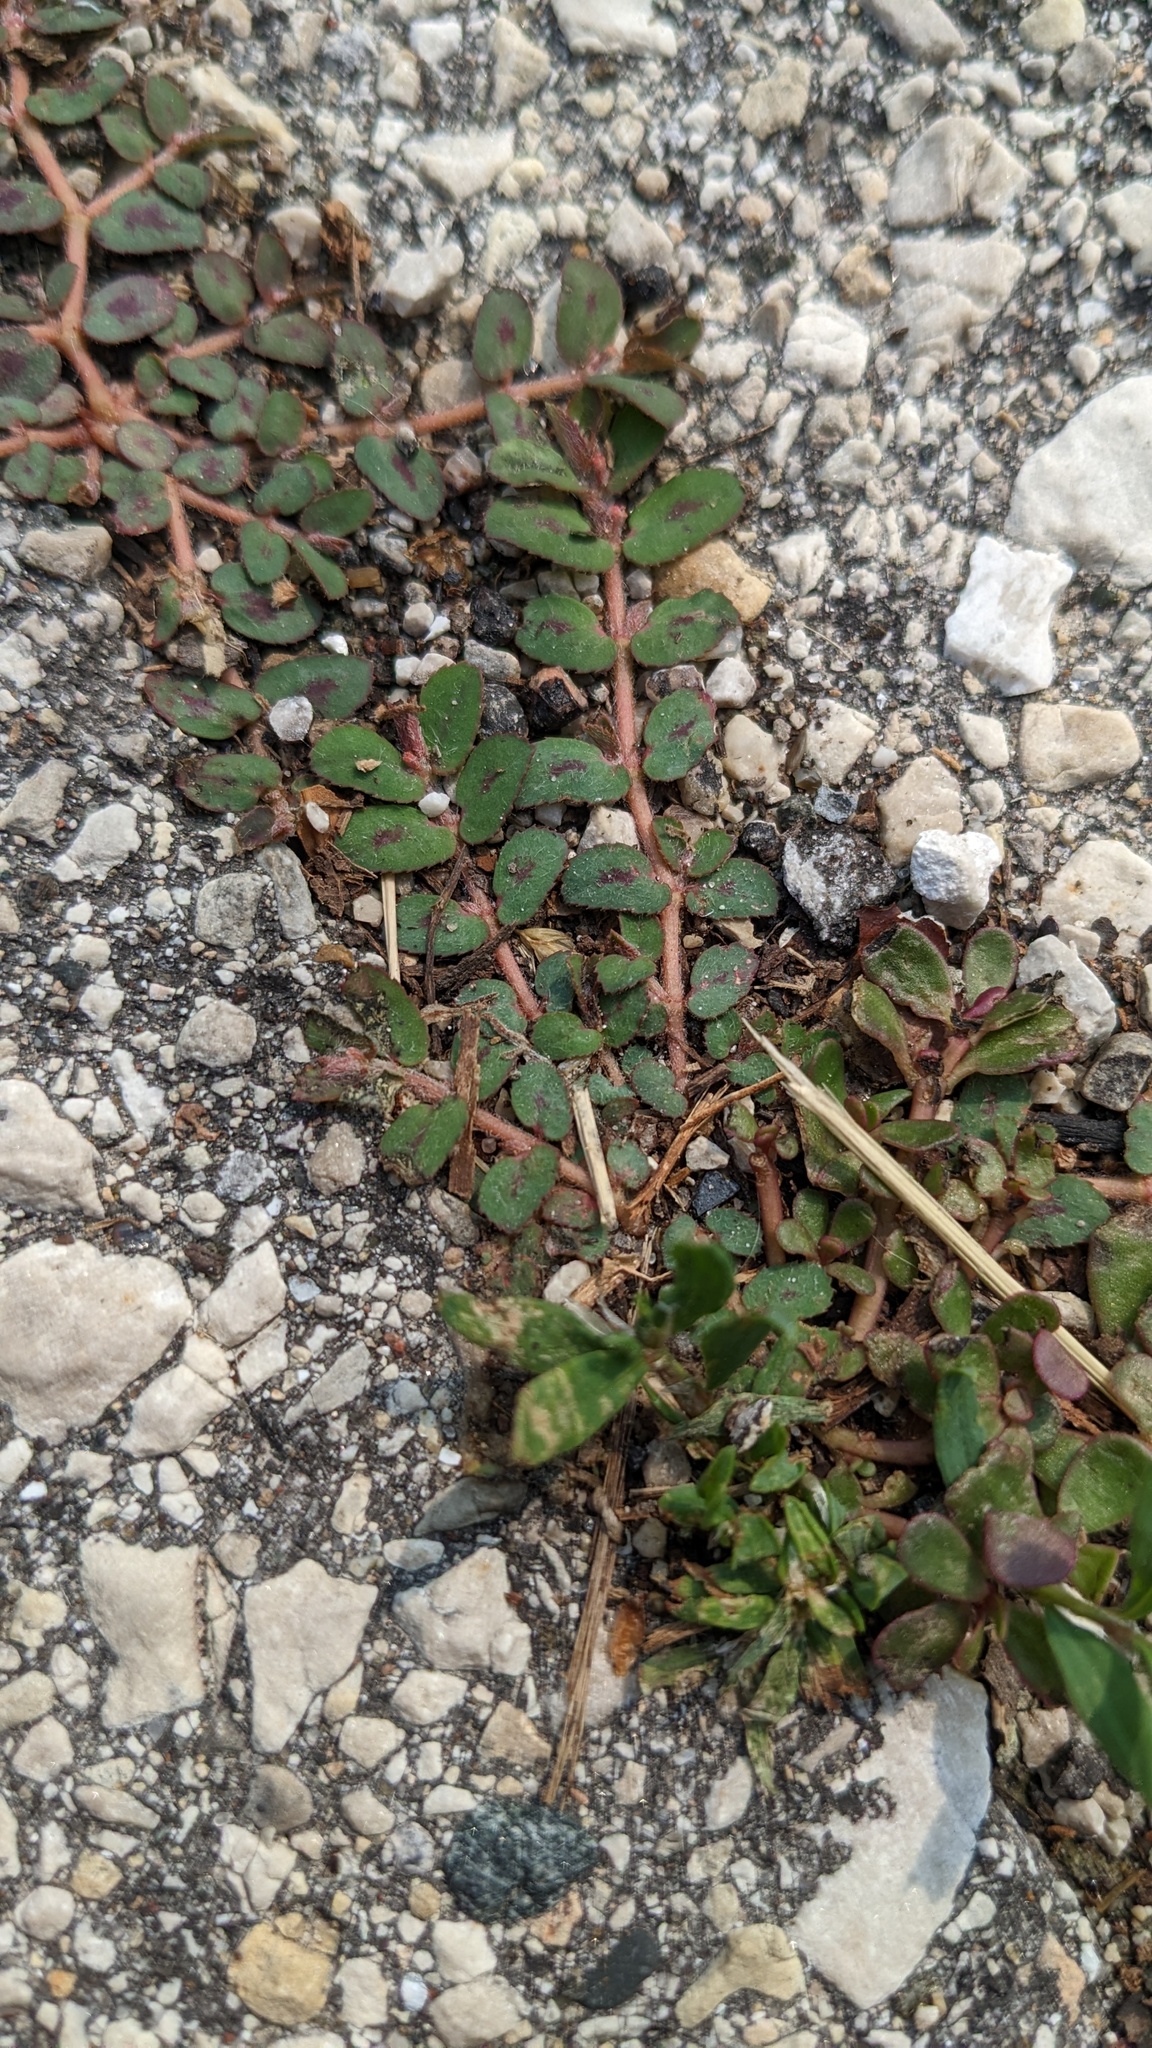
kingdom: Plantae
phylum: Tracheophyta
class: Magnoliopsida
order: Malpighiales
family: Euphorbiaceae
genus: Euphorbia
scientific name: Euphorbia maculata
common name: Spotted spurge
